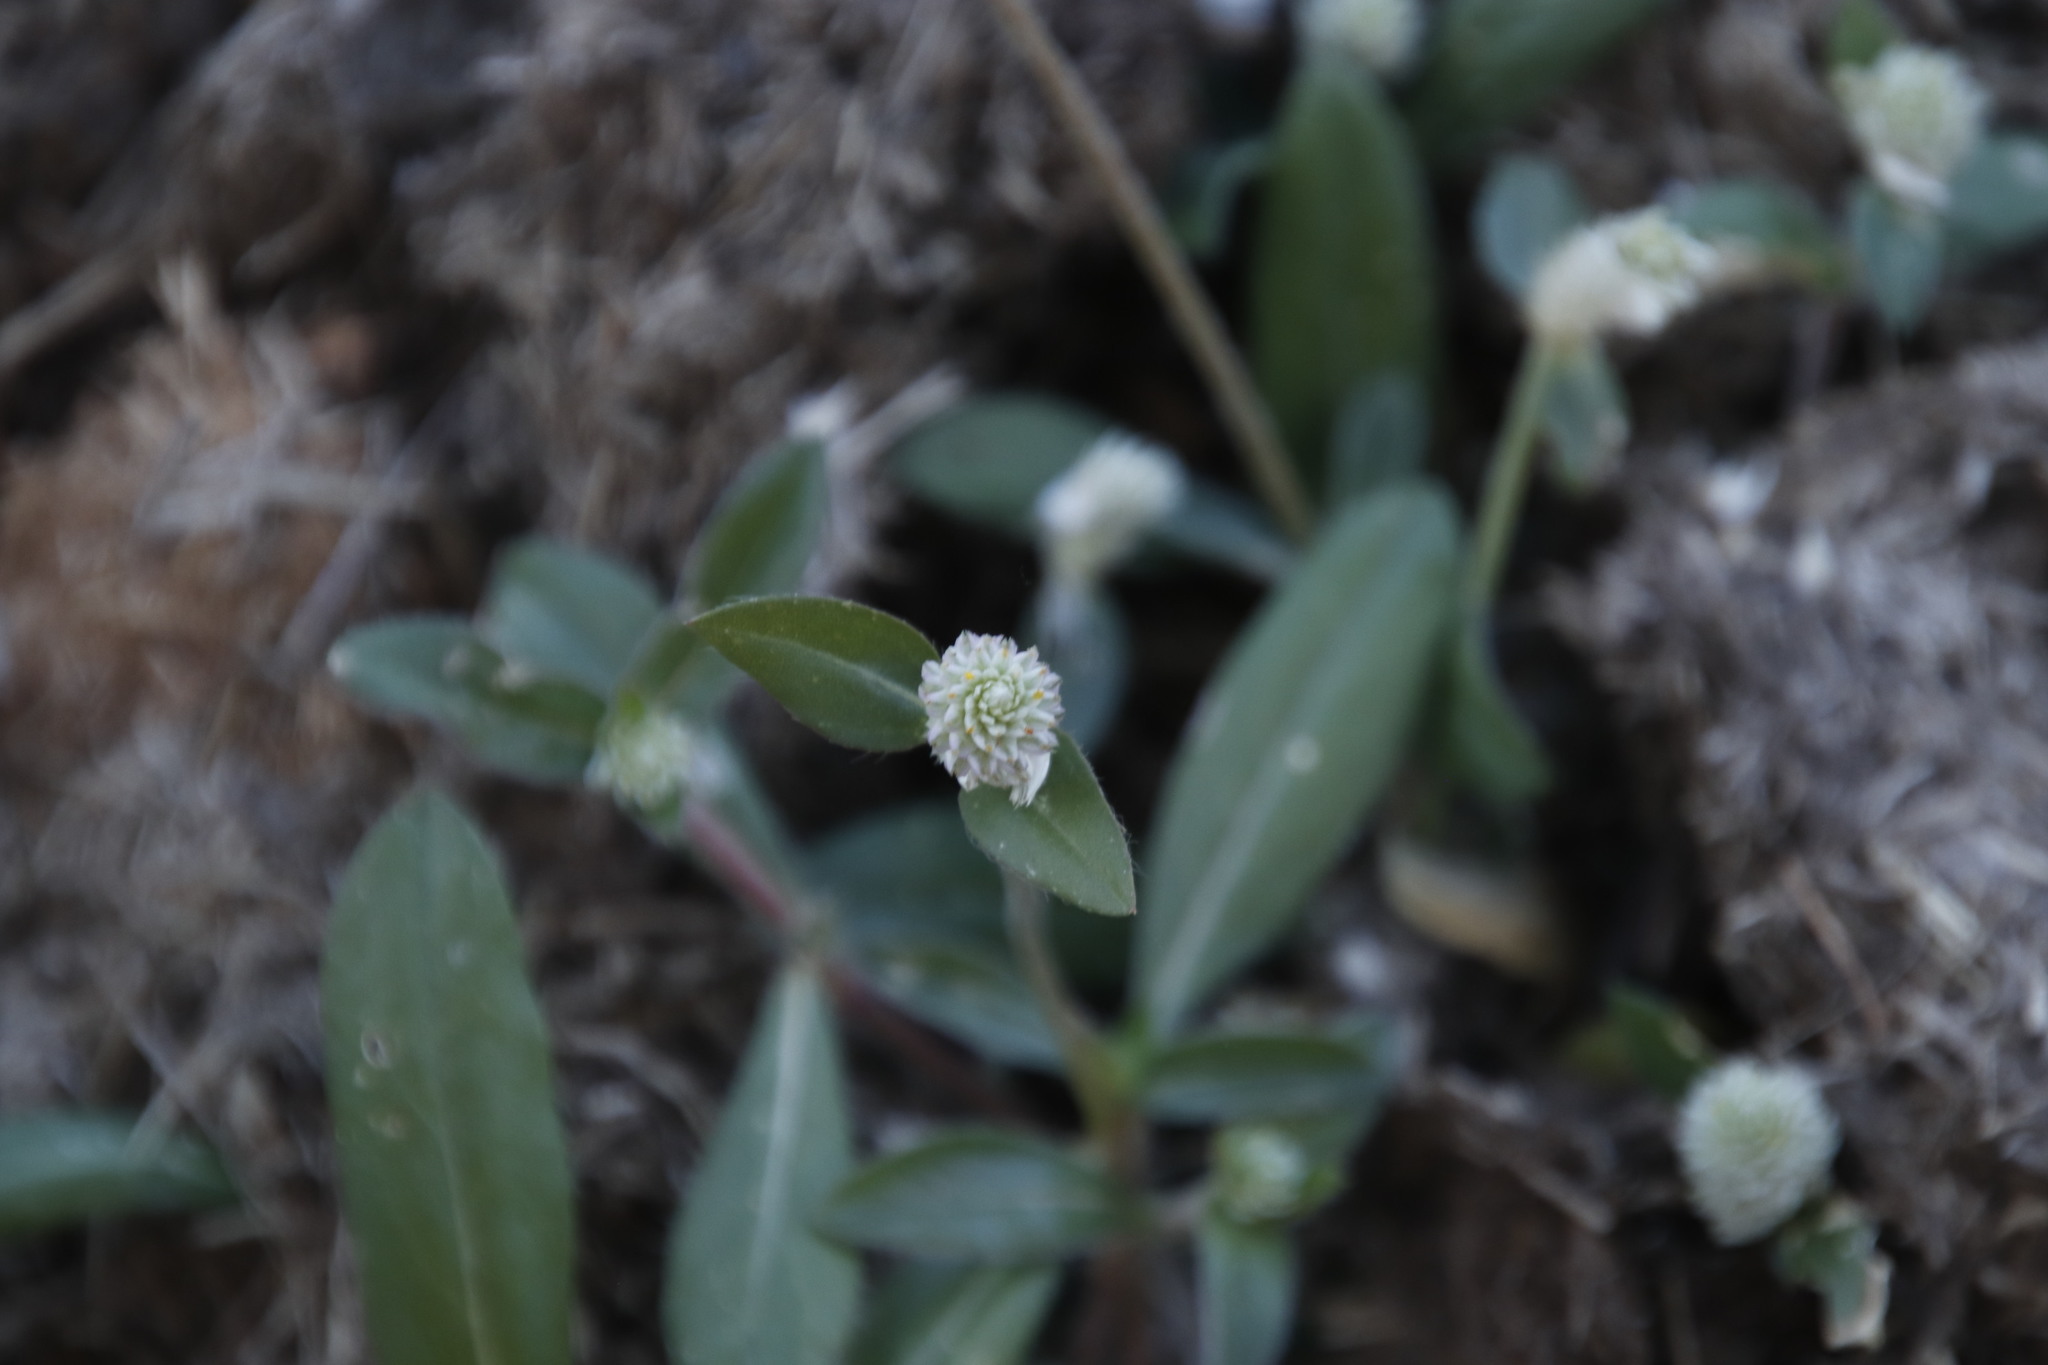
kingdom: Plantae
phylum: Tracheophyta
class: Magnoliopsida
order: Caryophyllales
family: Amaranthaceae
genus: Gomphrena
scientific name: Gomphrena celosioides
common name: Gomphrena-weed
